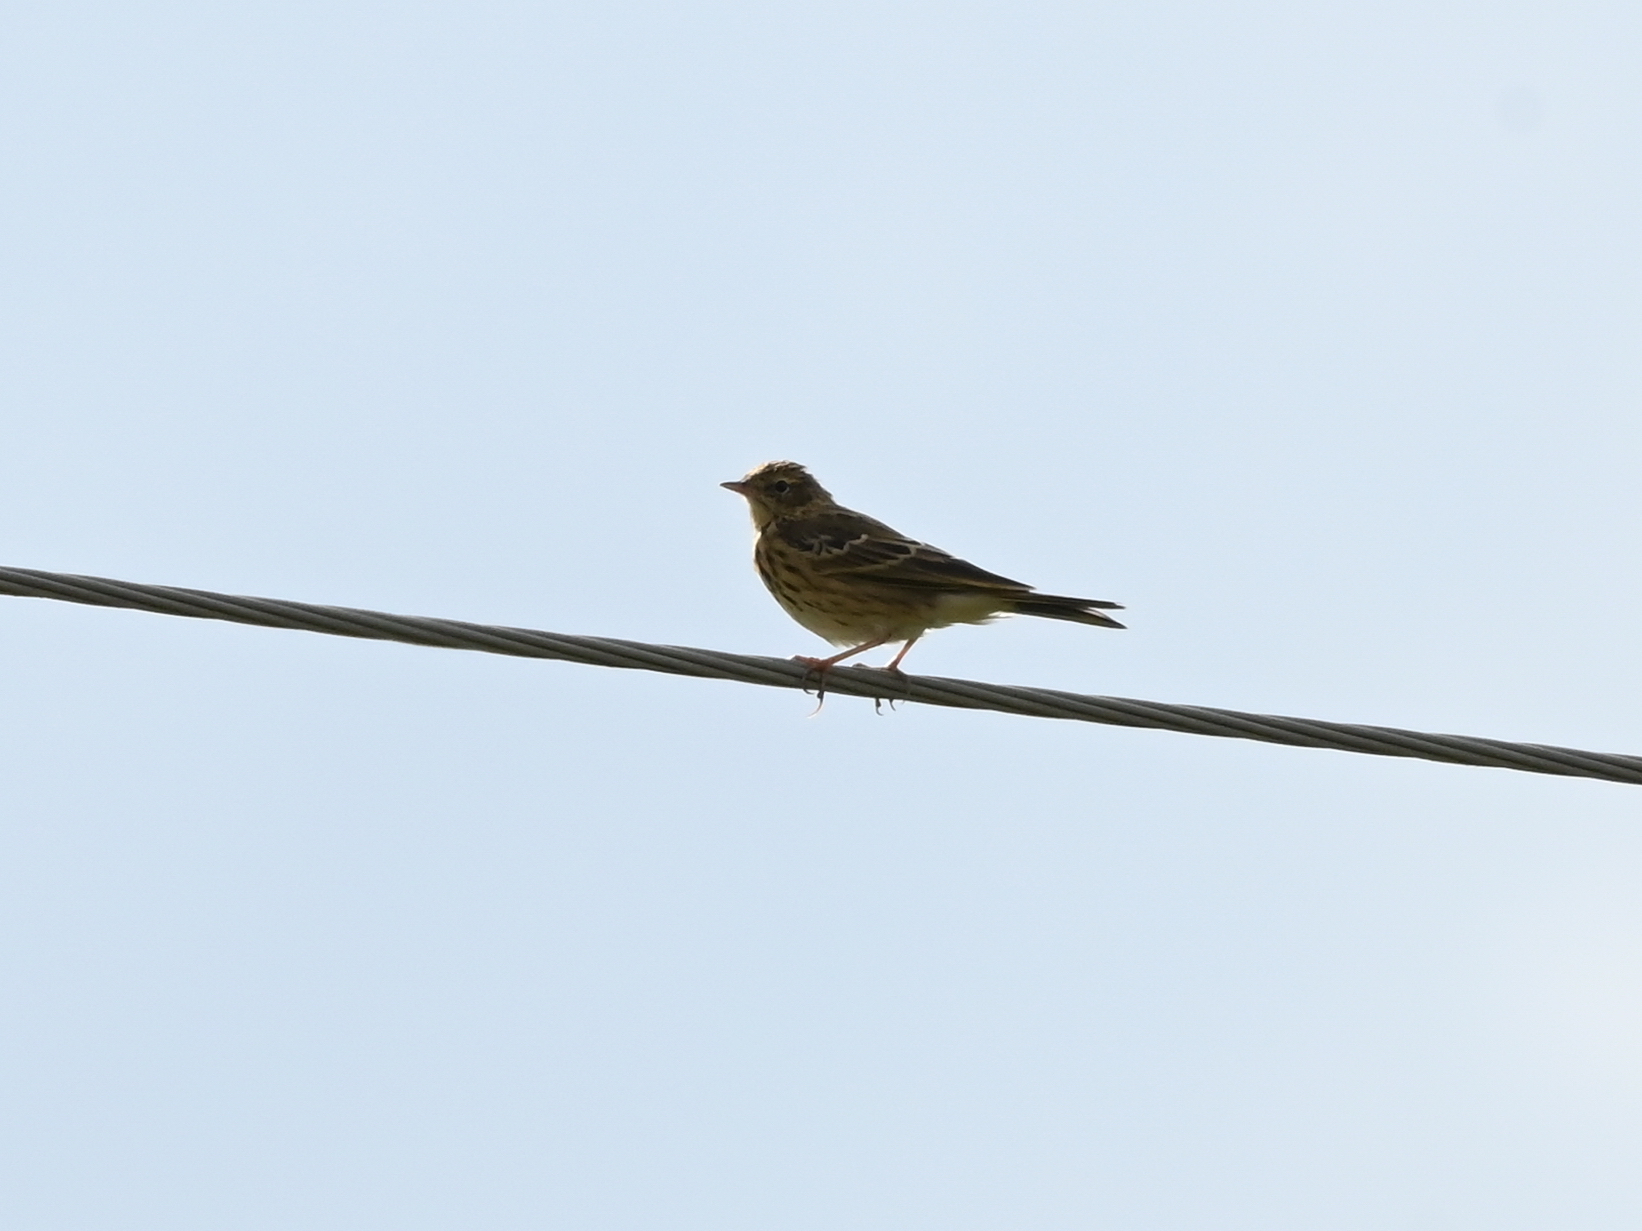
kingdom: Animalia
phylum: Chordata
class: Aves
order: Passeriformes
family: Motacillidae
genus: Anthus
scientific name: Anthus trivialis
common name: Tree pipit
